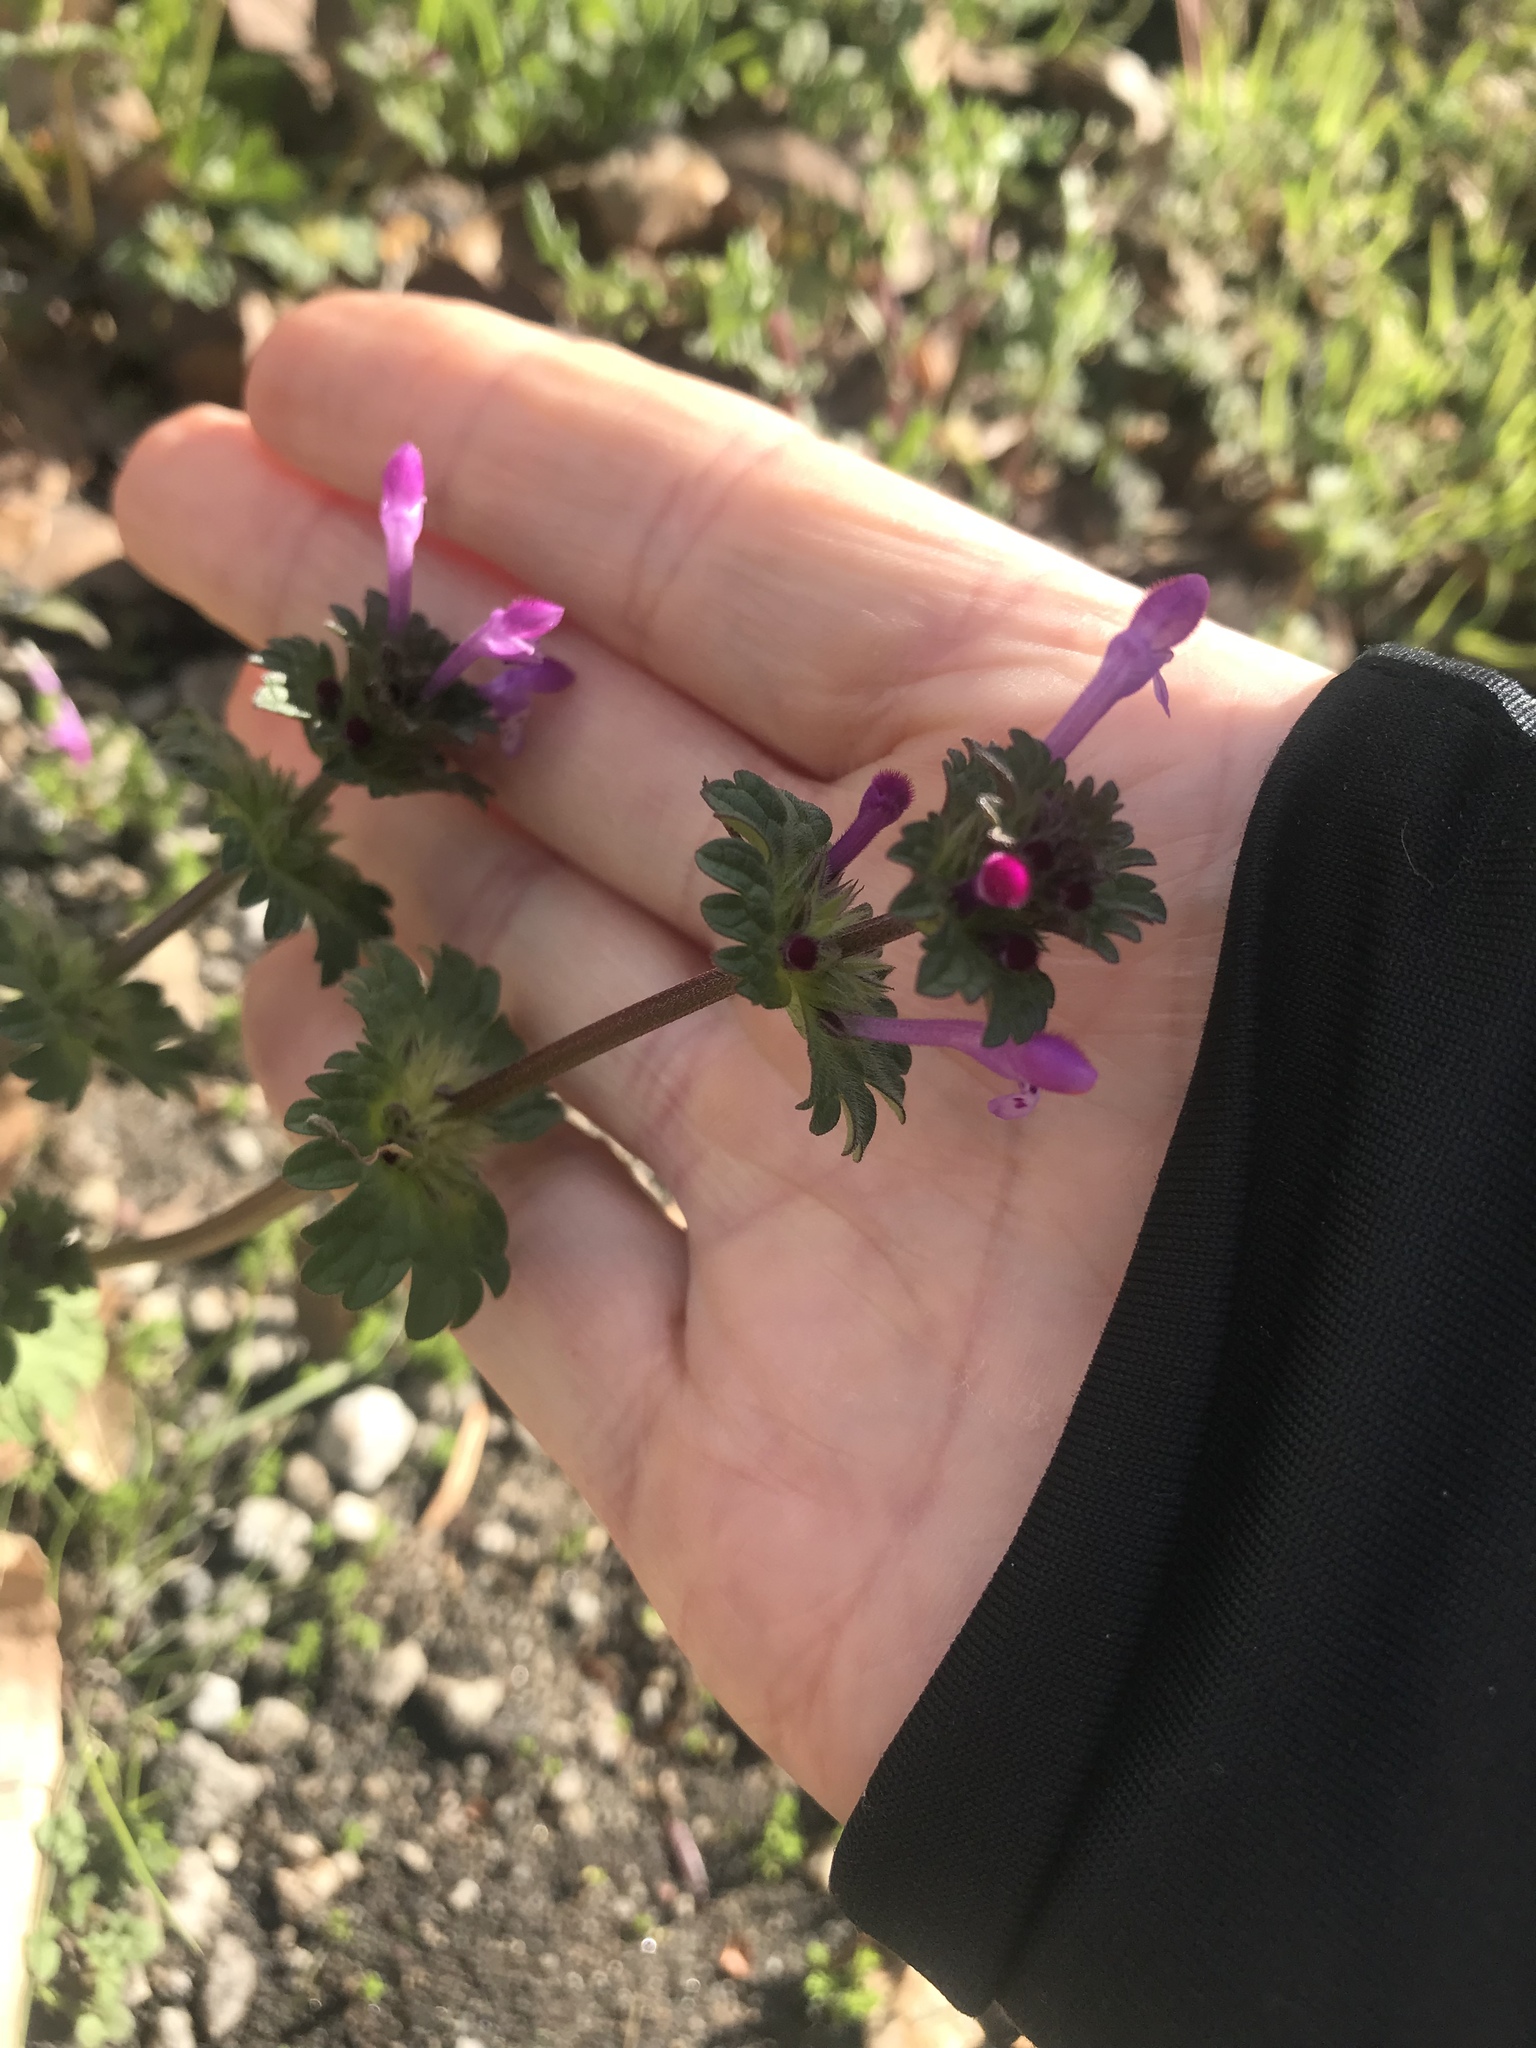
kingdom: Plantae
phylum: Tracheophyta
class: Magnoliopsida
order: Lamiales
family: Lamiaceae
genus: Lamium
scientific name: Lamium amplexicaule
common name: Henbit dead-nettle
